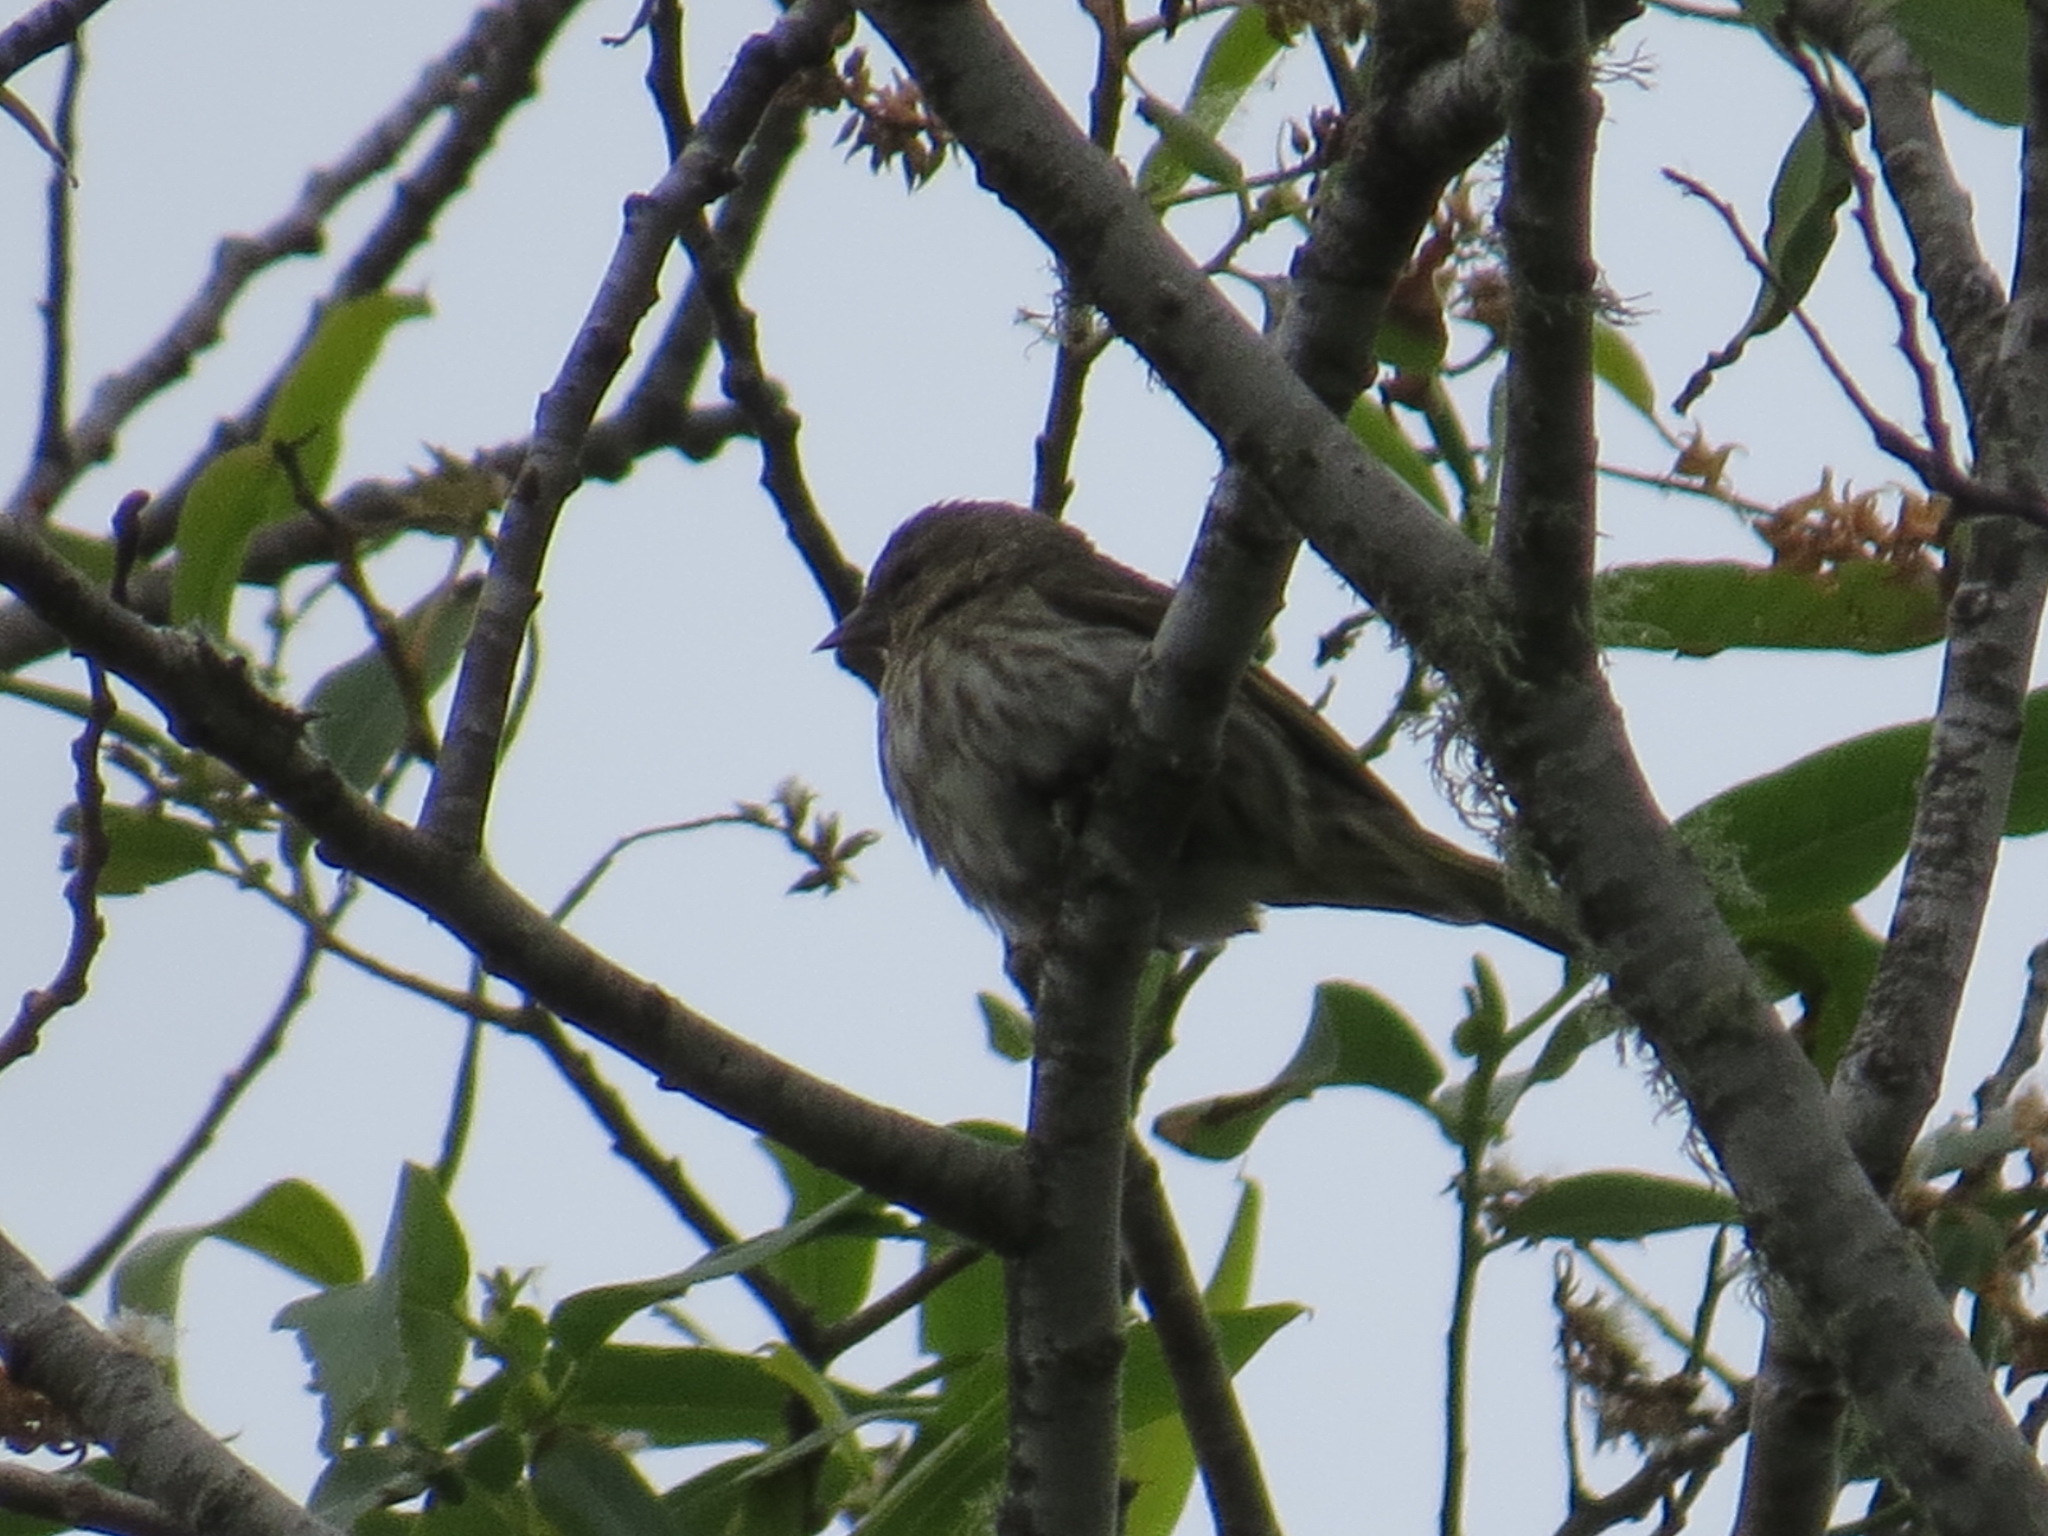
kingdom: Animalia
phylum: Chordata
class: Aves
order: Passeriformes
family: Fringillidae
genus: Spinus
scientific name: Spinus pinus
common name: Pine siskin
